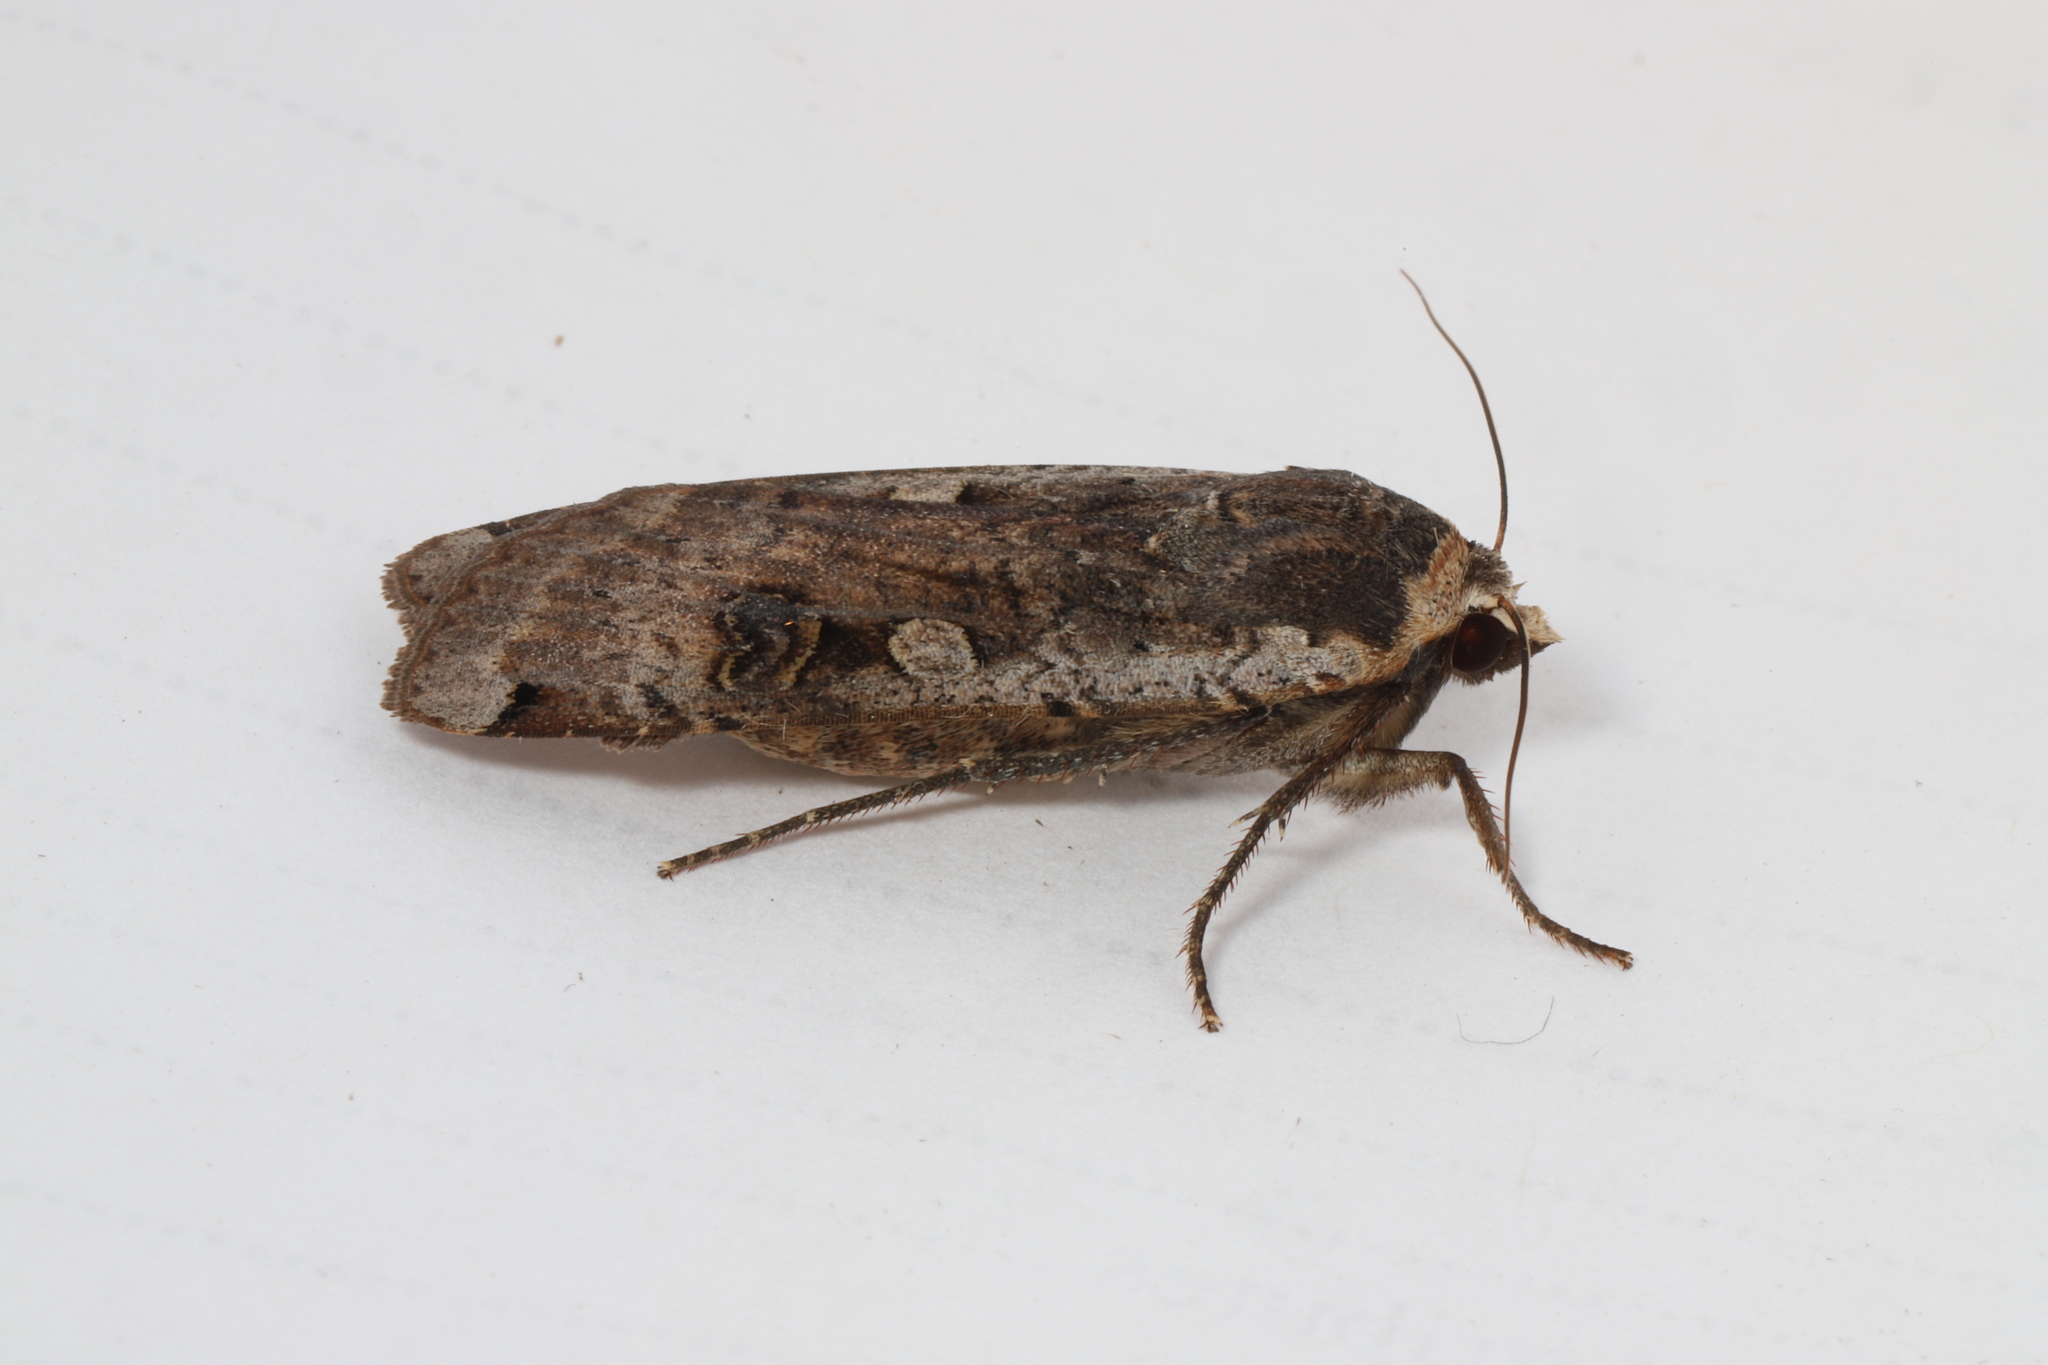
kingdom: Animalia
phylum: Arthropoda
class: Insecta
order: Lepidoptera
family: Noctuidae
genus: Noctua
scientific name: Noctua pronuba
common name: Large yellow underwing
